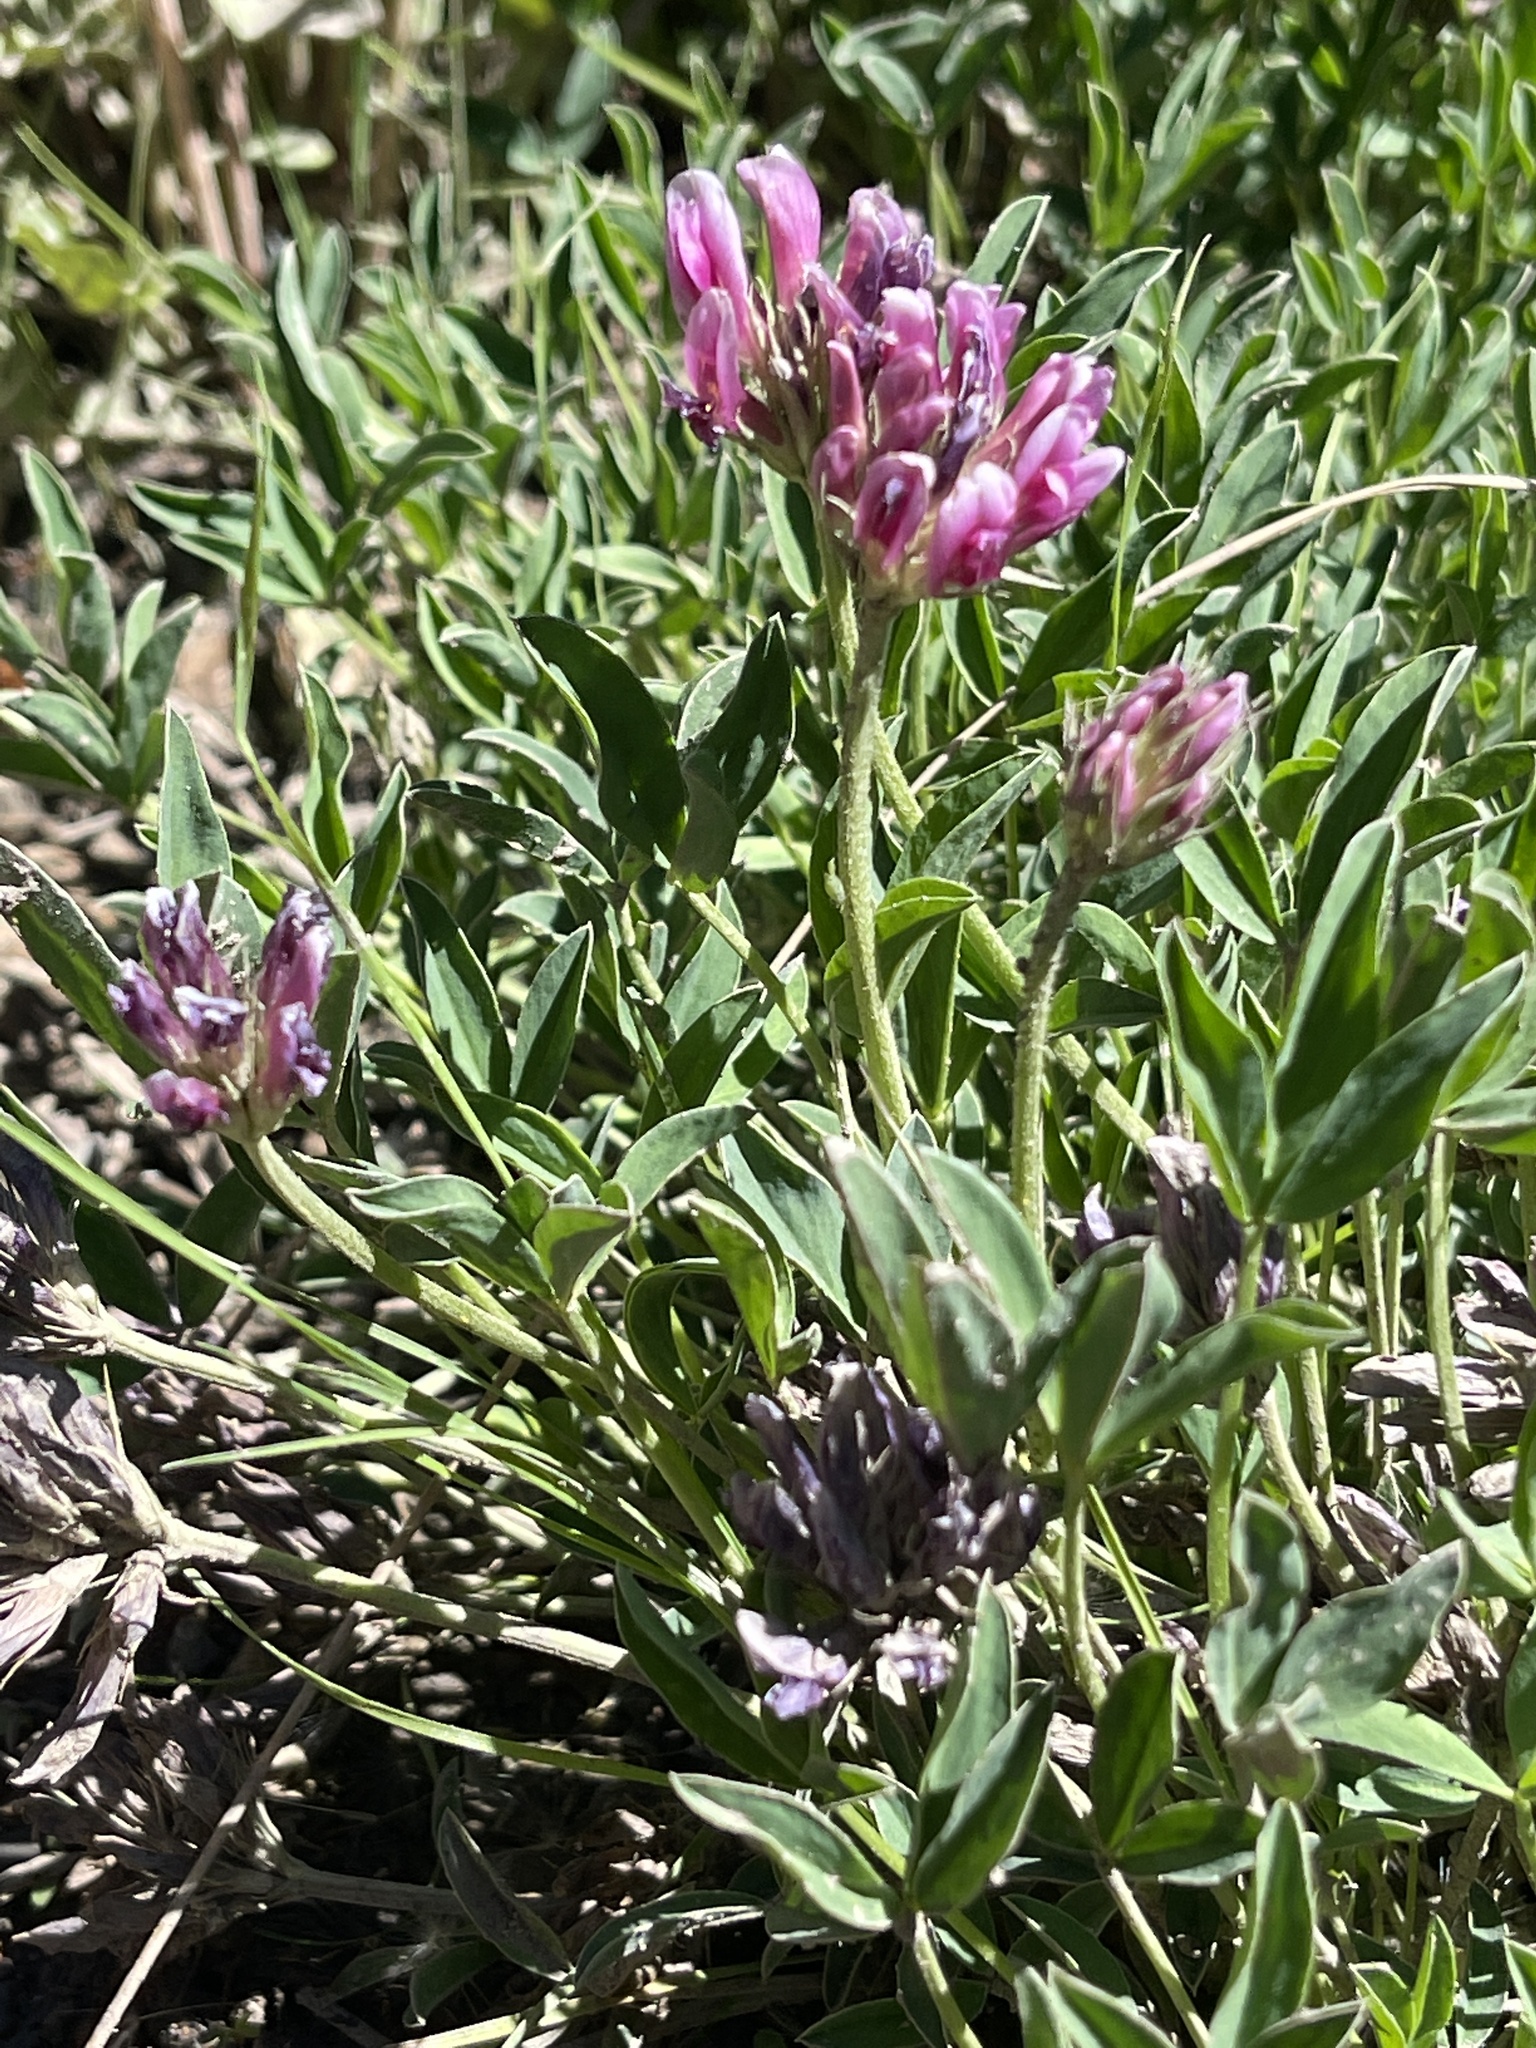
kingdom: Plantae
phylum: Tracheophyta
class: Magnoliopsida
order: Fabales
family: Fabaceae
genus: Trifolium
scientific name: Trifolium dasyphyllum
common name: Whip-root clover
